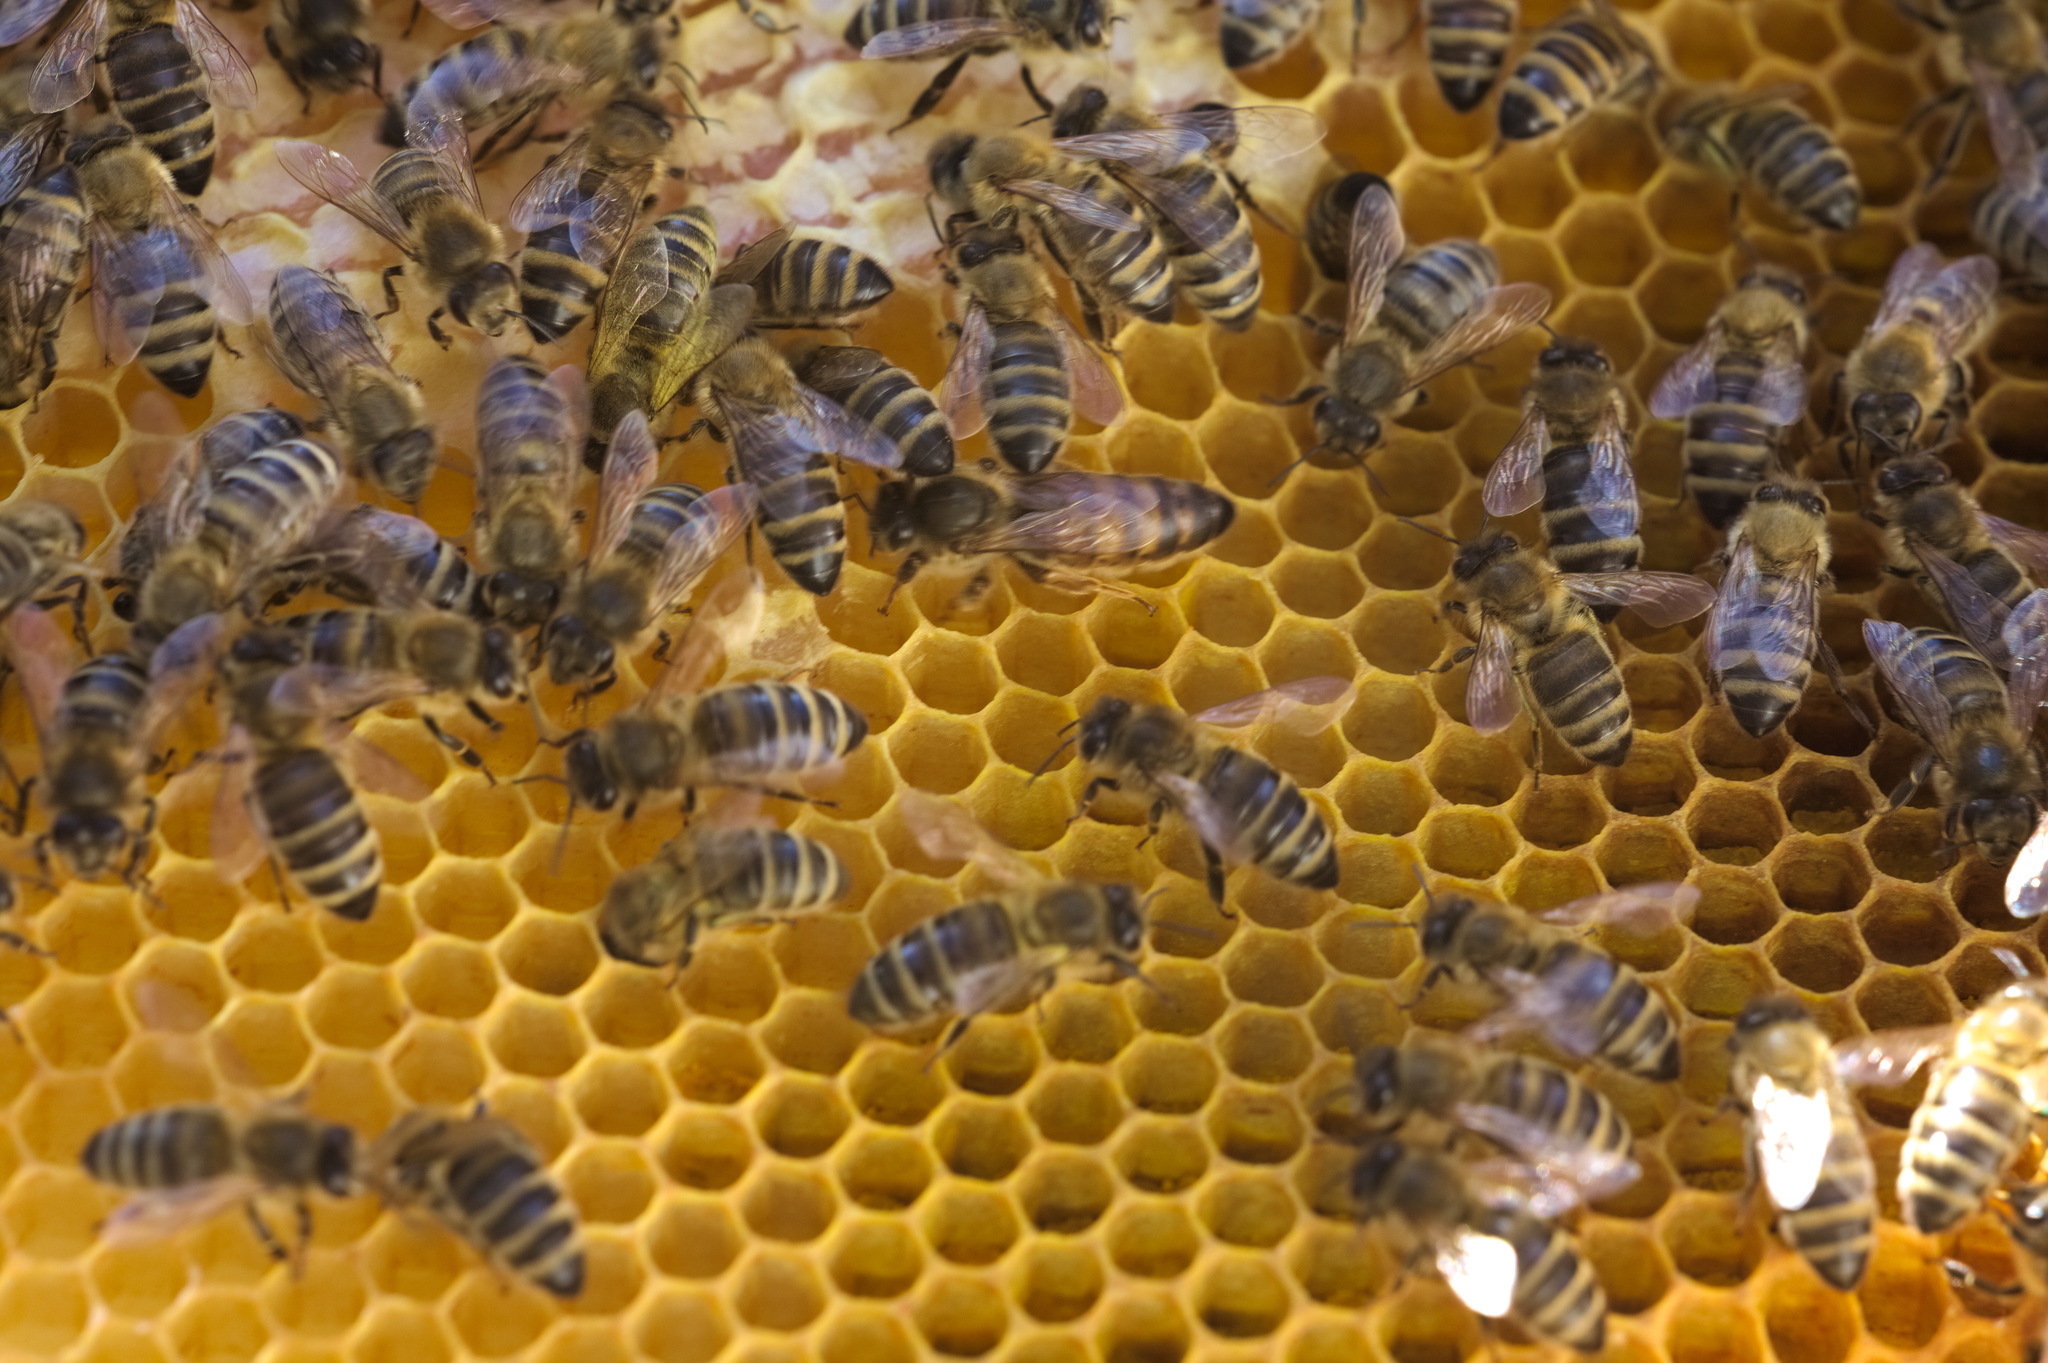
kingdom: Animalia
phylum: Arthropoda
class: Insecta
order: Hymenoptera
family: Apidae
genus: Apis
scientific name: Apis mellifera
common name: Honey bee
